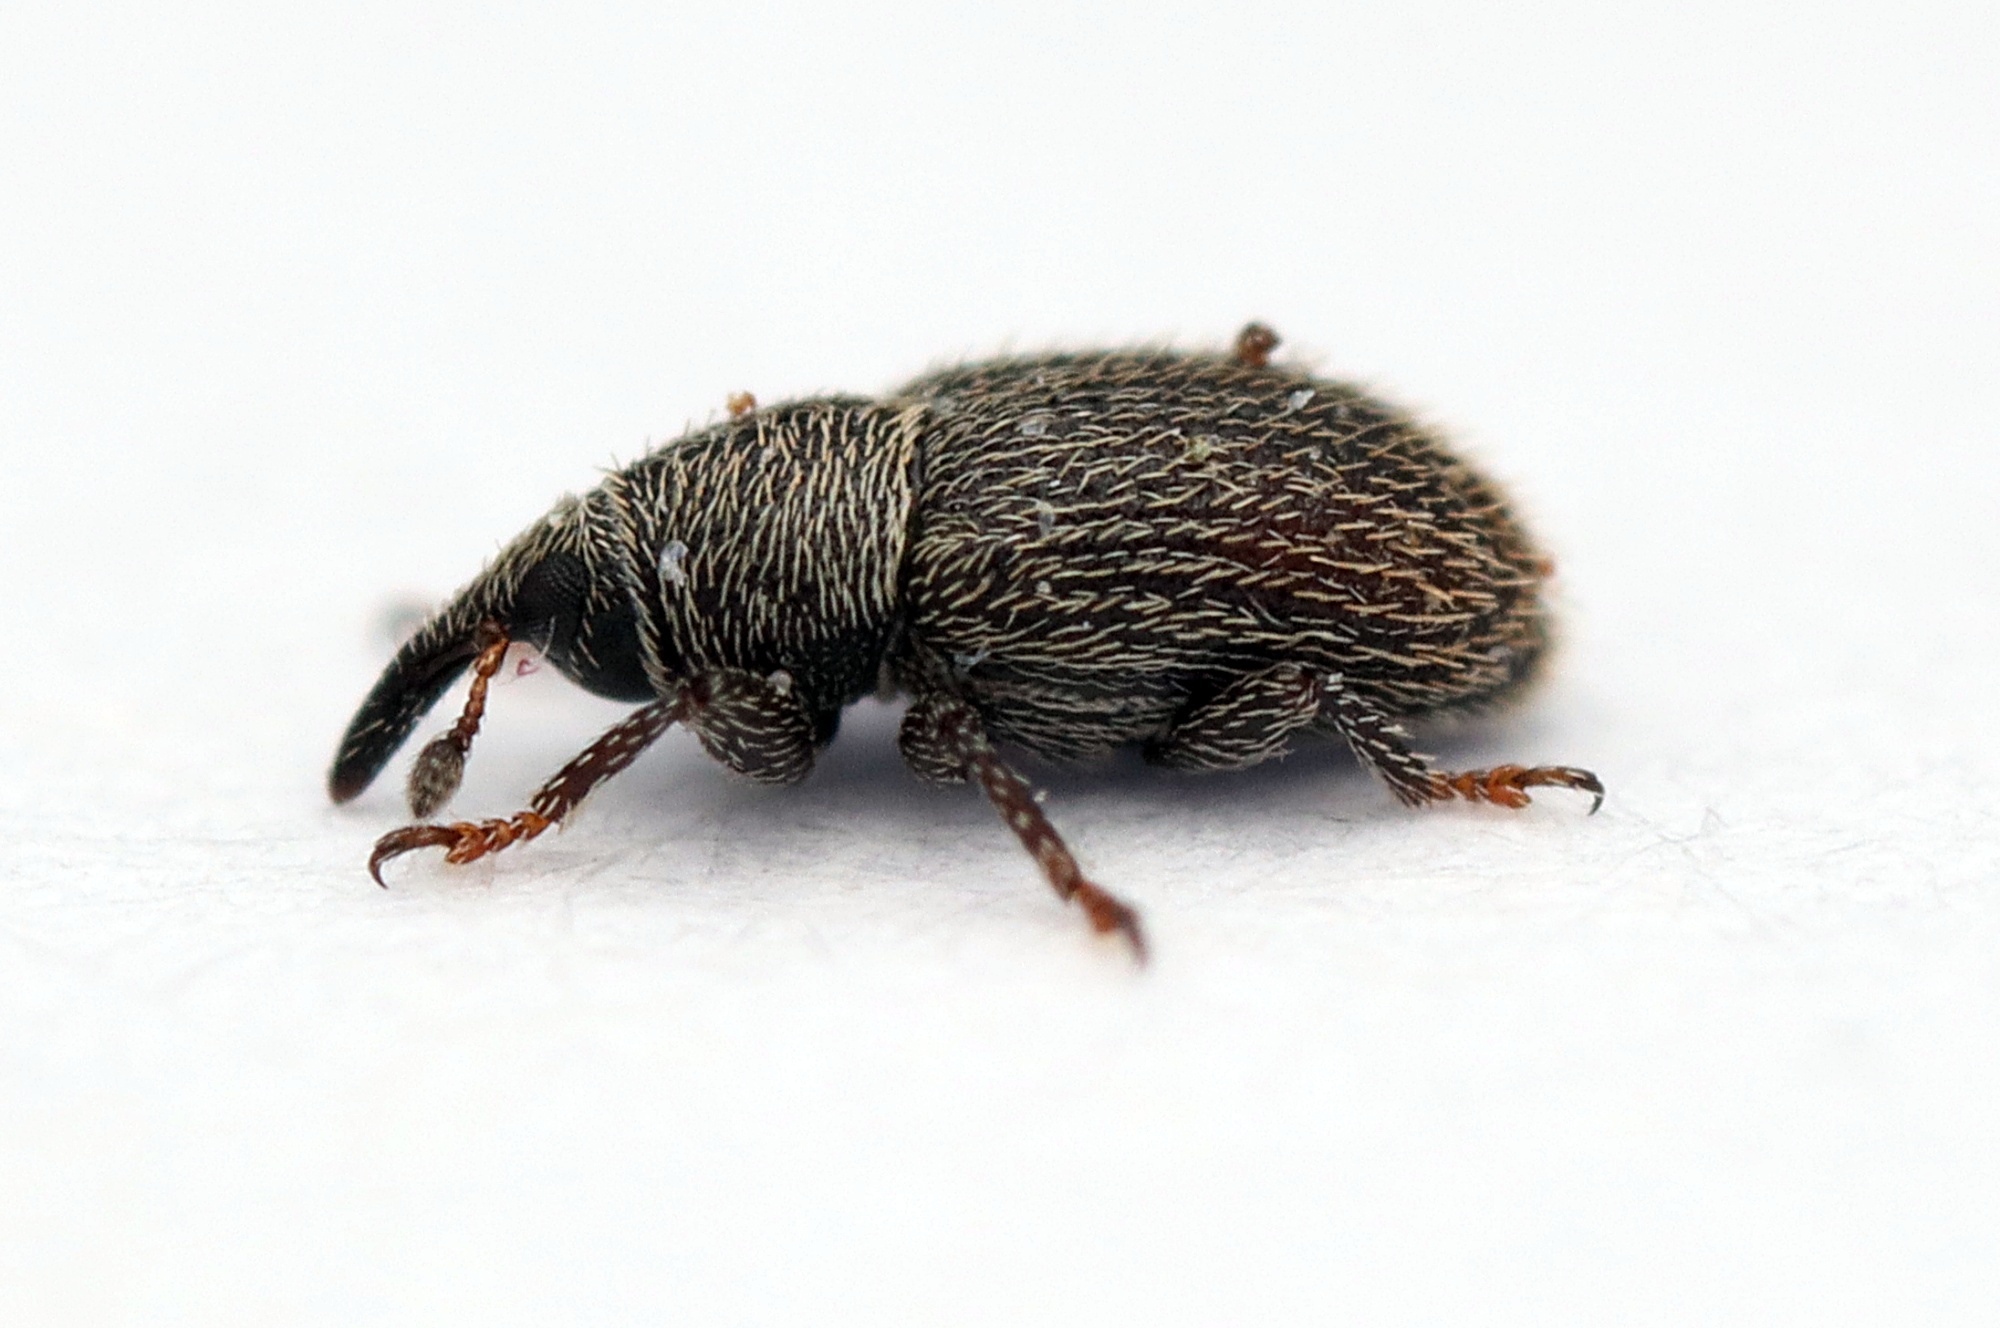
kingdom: Animalia
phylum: Arthropoda
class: Insecta
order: Coleoptera
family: Curculionidae
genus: Mecinus
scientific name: Mecinus pascuorum
